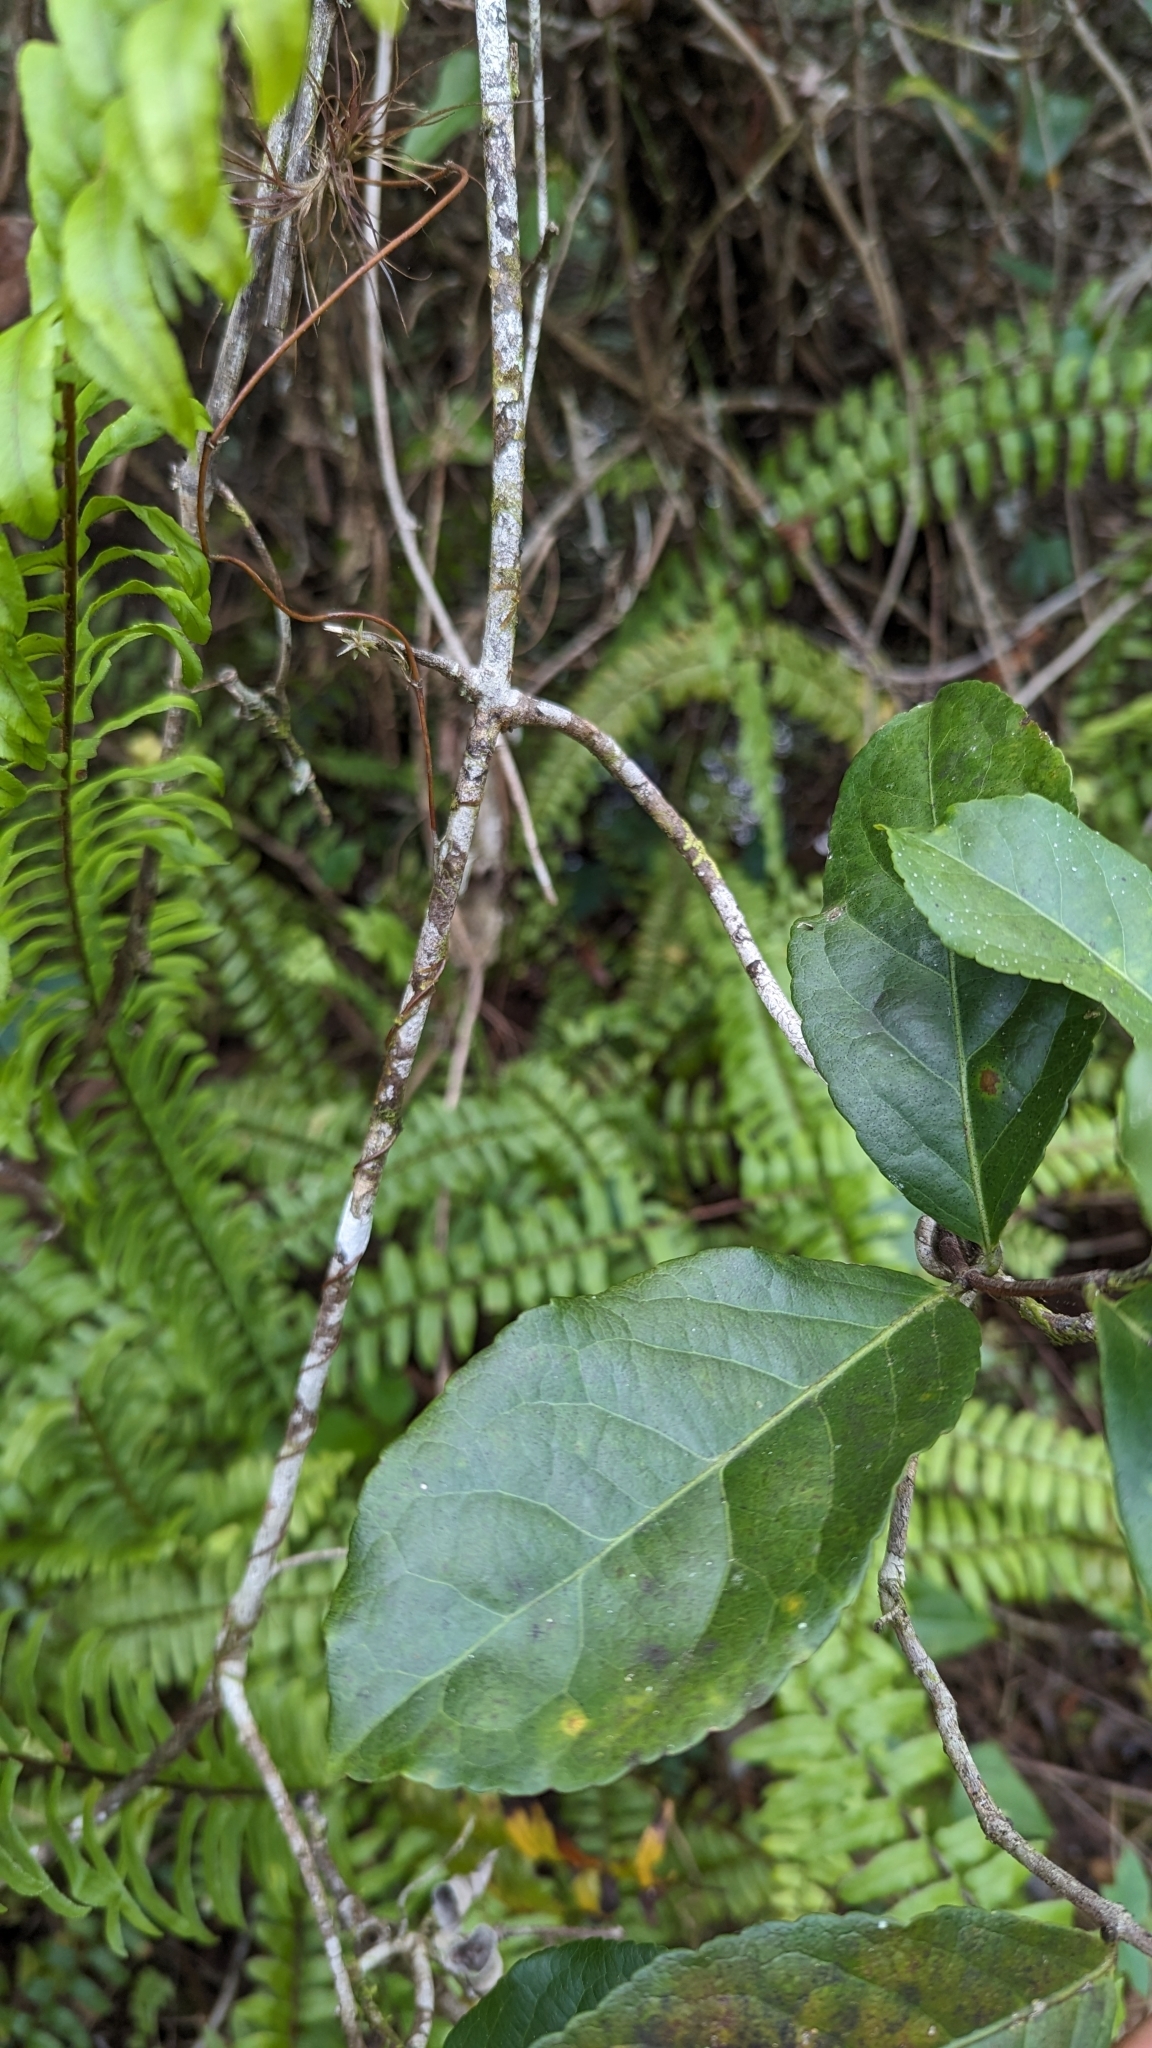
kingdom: Plantae
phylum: Tracheophyta
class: Magnoliopsida
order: Celastrales
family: Celastraceae
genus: Hippocratea
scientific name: Hippocratea volubilis
